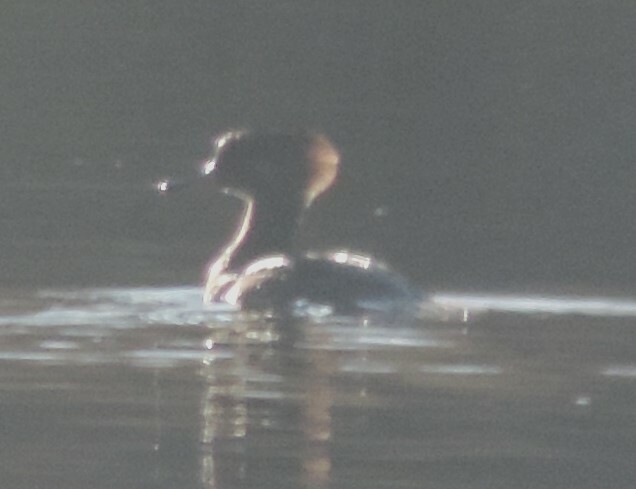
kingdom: Animalia
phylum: Chordata
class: Aves
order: Anseriformes
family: Anatidae
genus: Lophodytes
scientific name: Lophodytes cucullatus
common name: Hooded merganser
